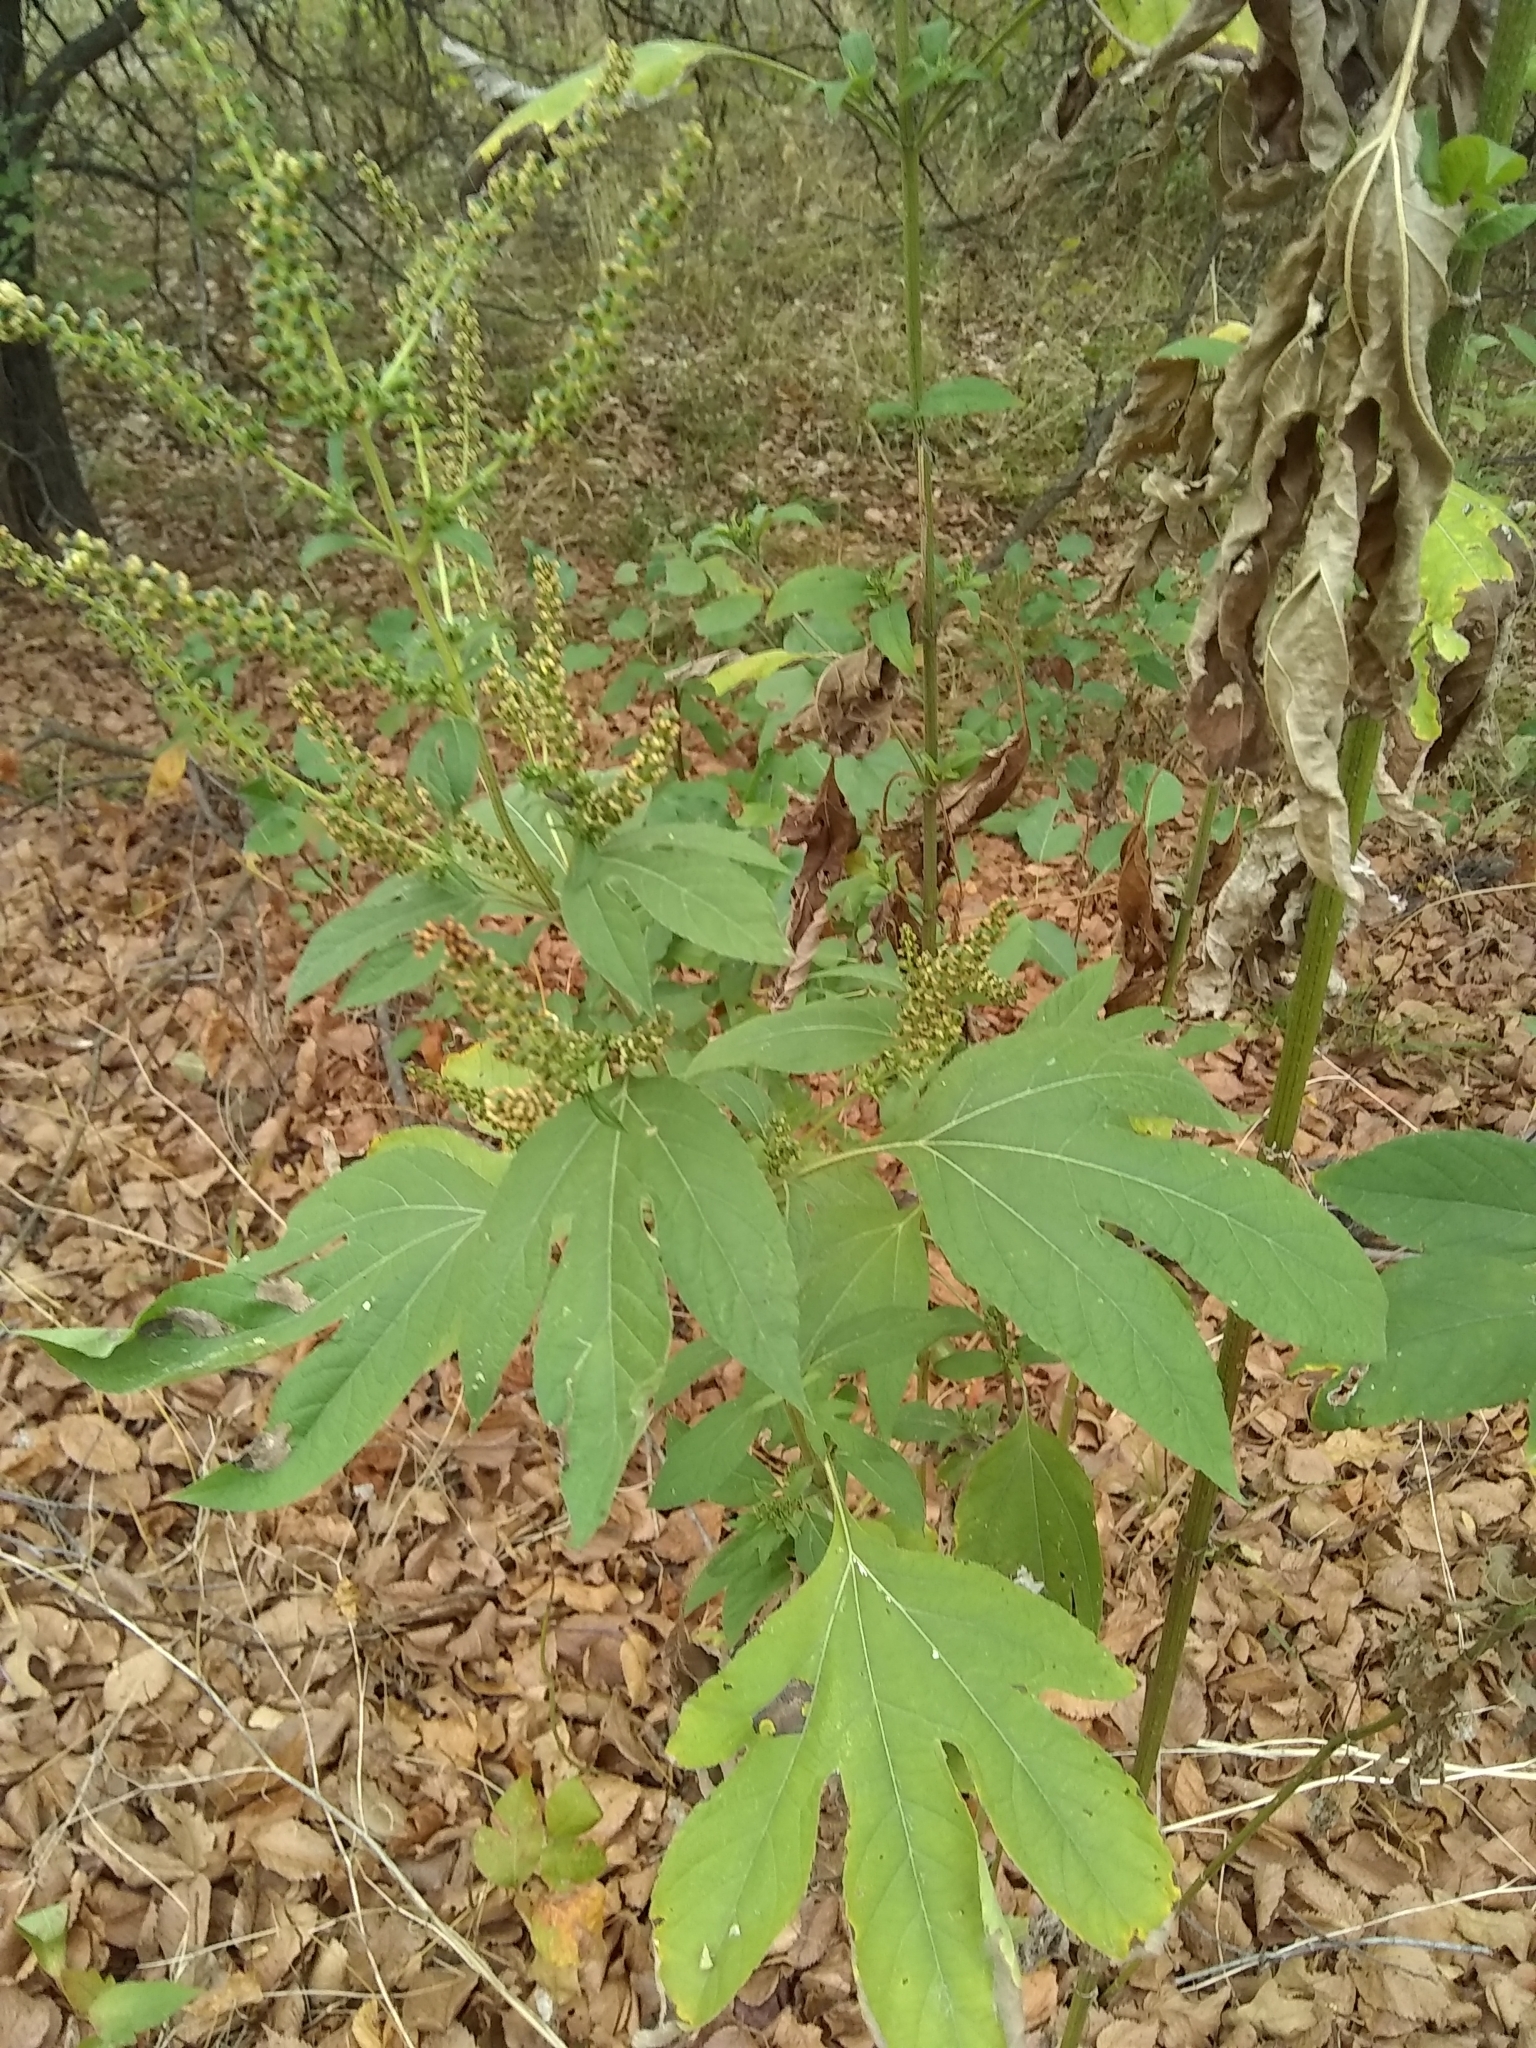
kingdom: Plantae
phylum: Tracheophyta
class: Magnoliopsida
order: Asterales
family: Asteraceae
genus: Ambrosia
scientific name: Ambrosia trifida
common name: Giant ragweed
